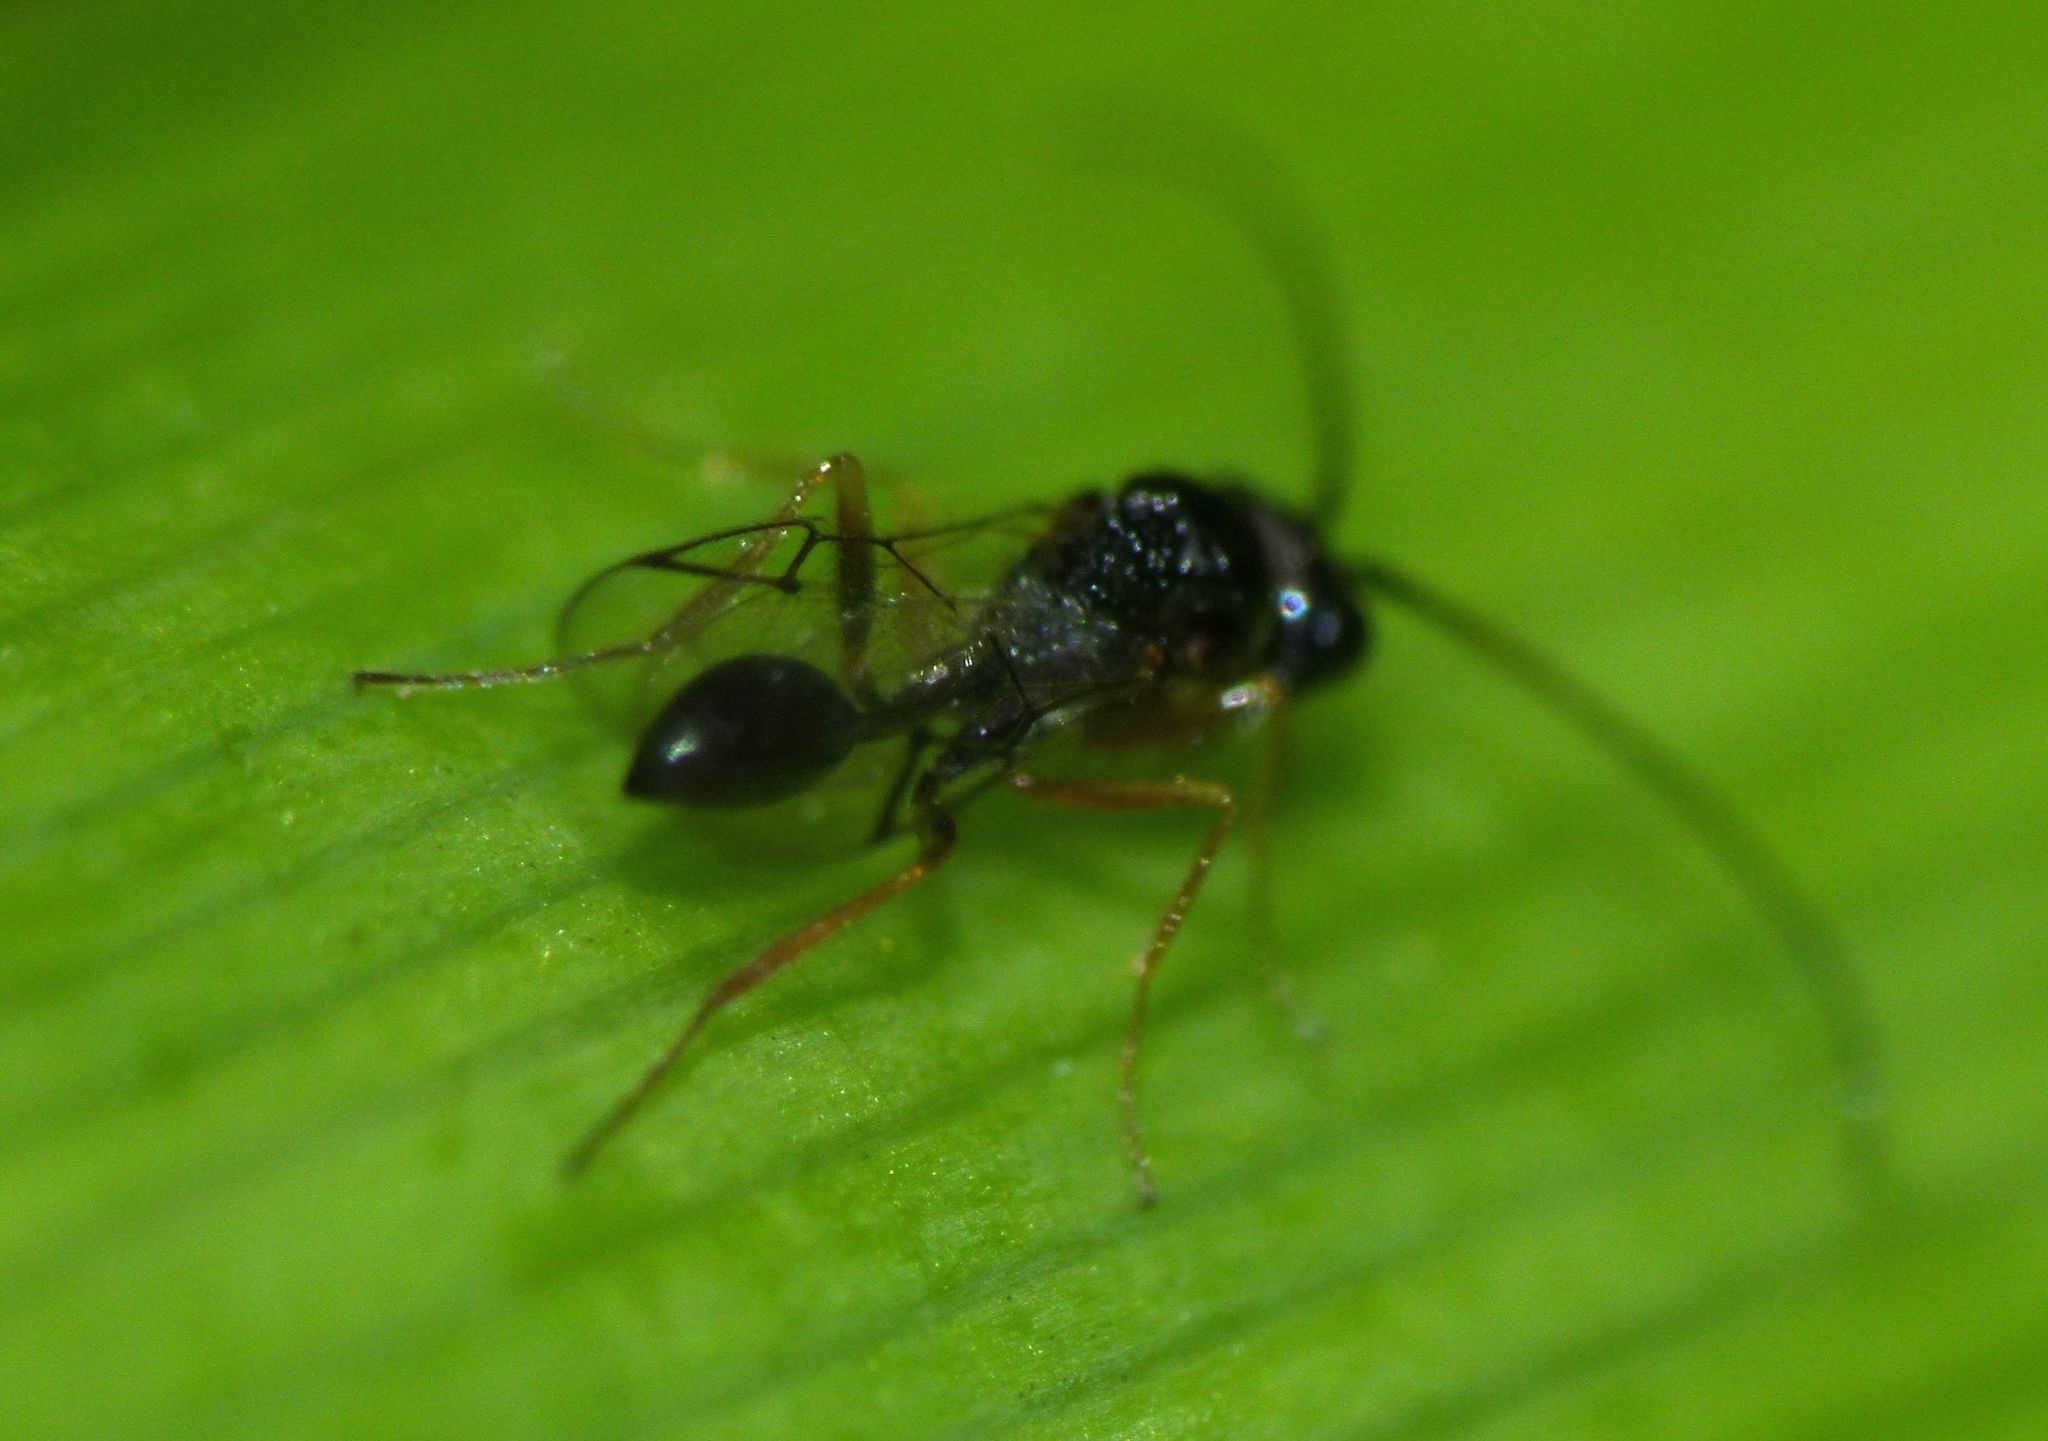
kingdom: Animalia
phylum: Arthropoda
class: Insecta
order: Hymenoptera
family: Figitidae
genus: Anacharis
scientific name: Anacharis zealandica
